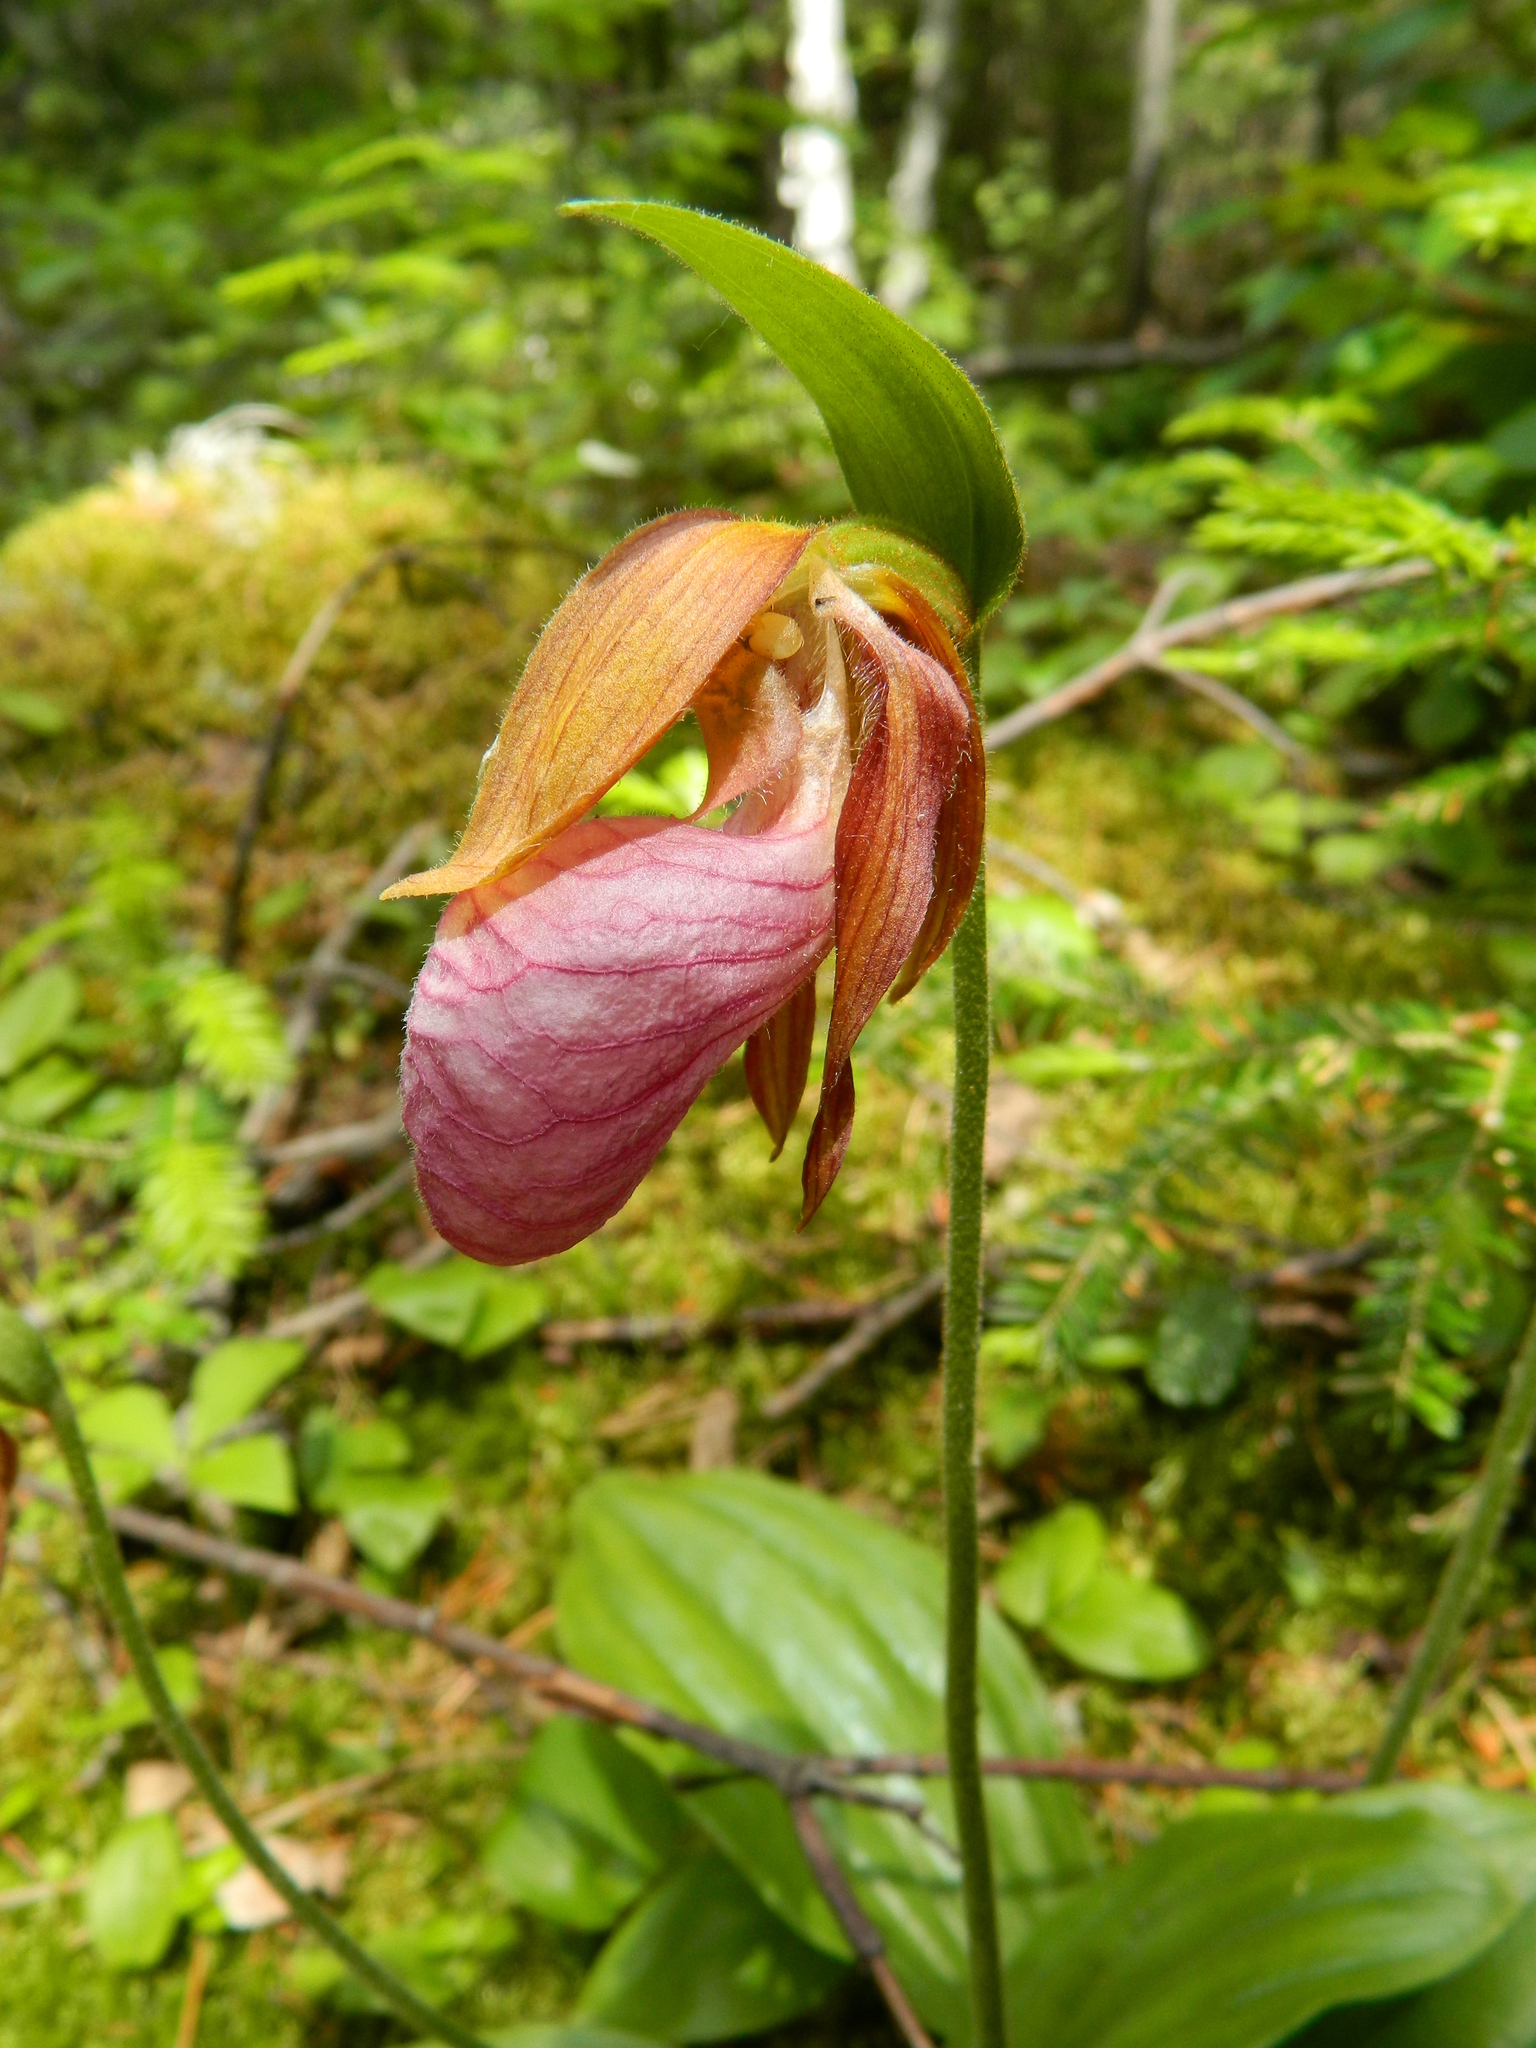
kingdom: Plantae
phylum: Tracheophyta
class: Liliopsida
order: Asparagales
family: Orchidaceae
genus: Cypripedium
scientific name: Cypripedium acaule
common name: Pink lady's-slipper
